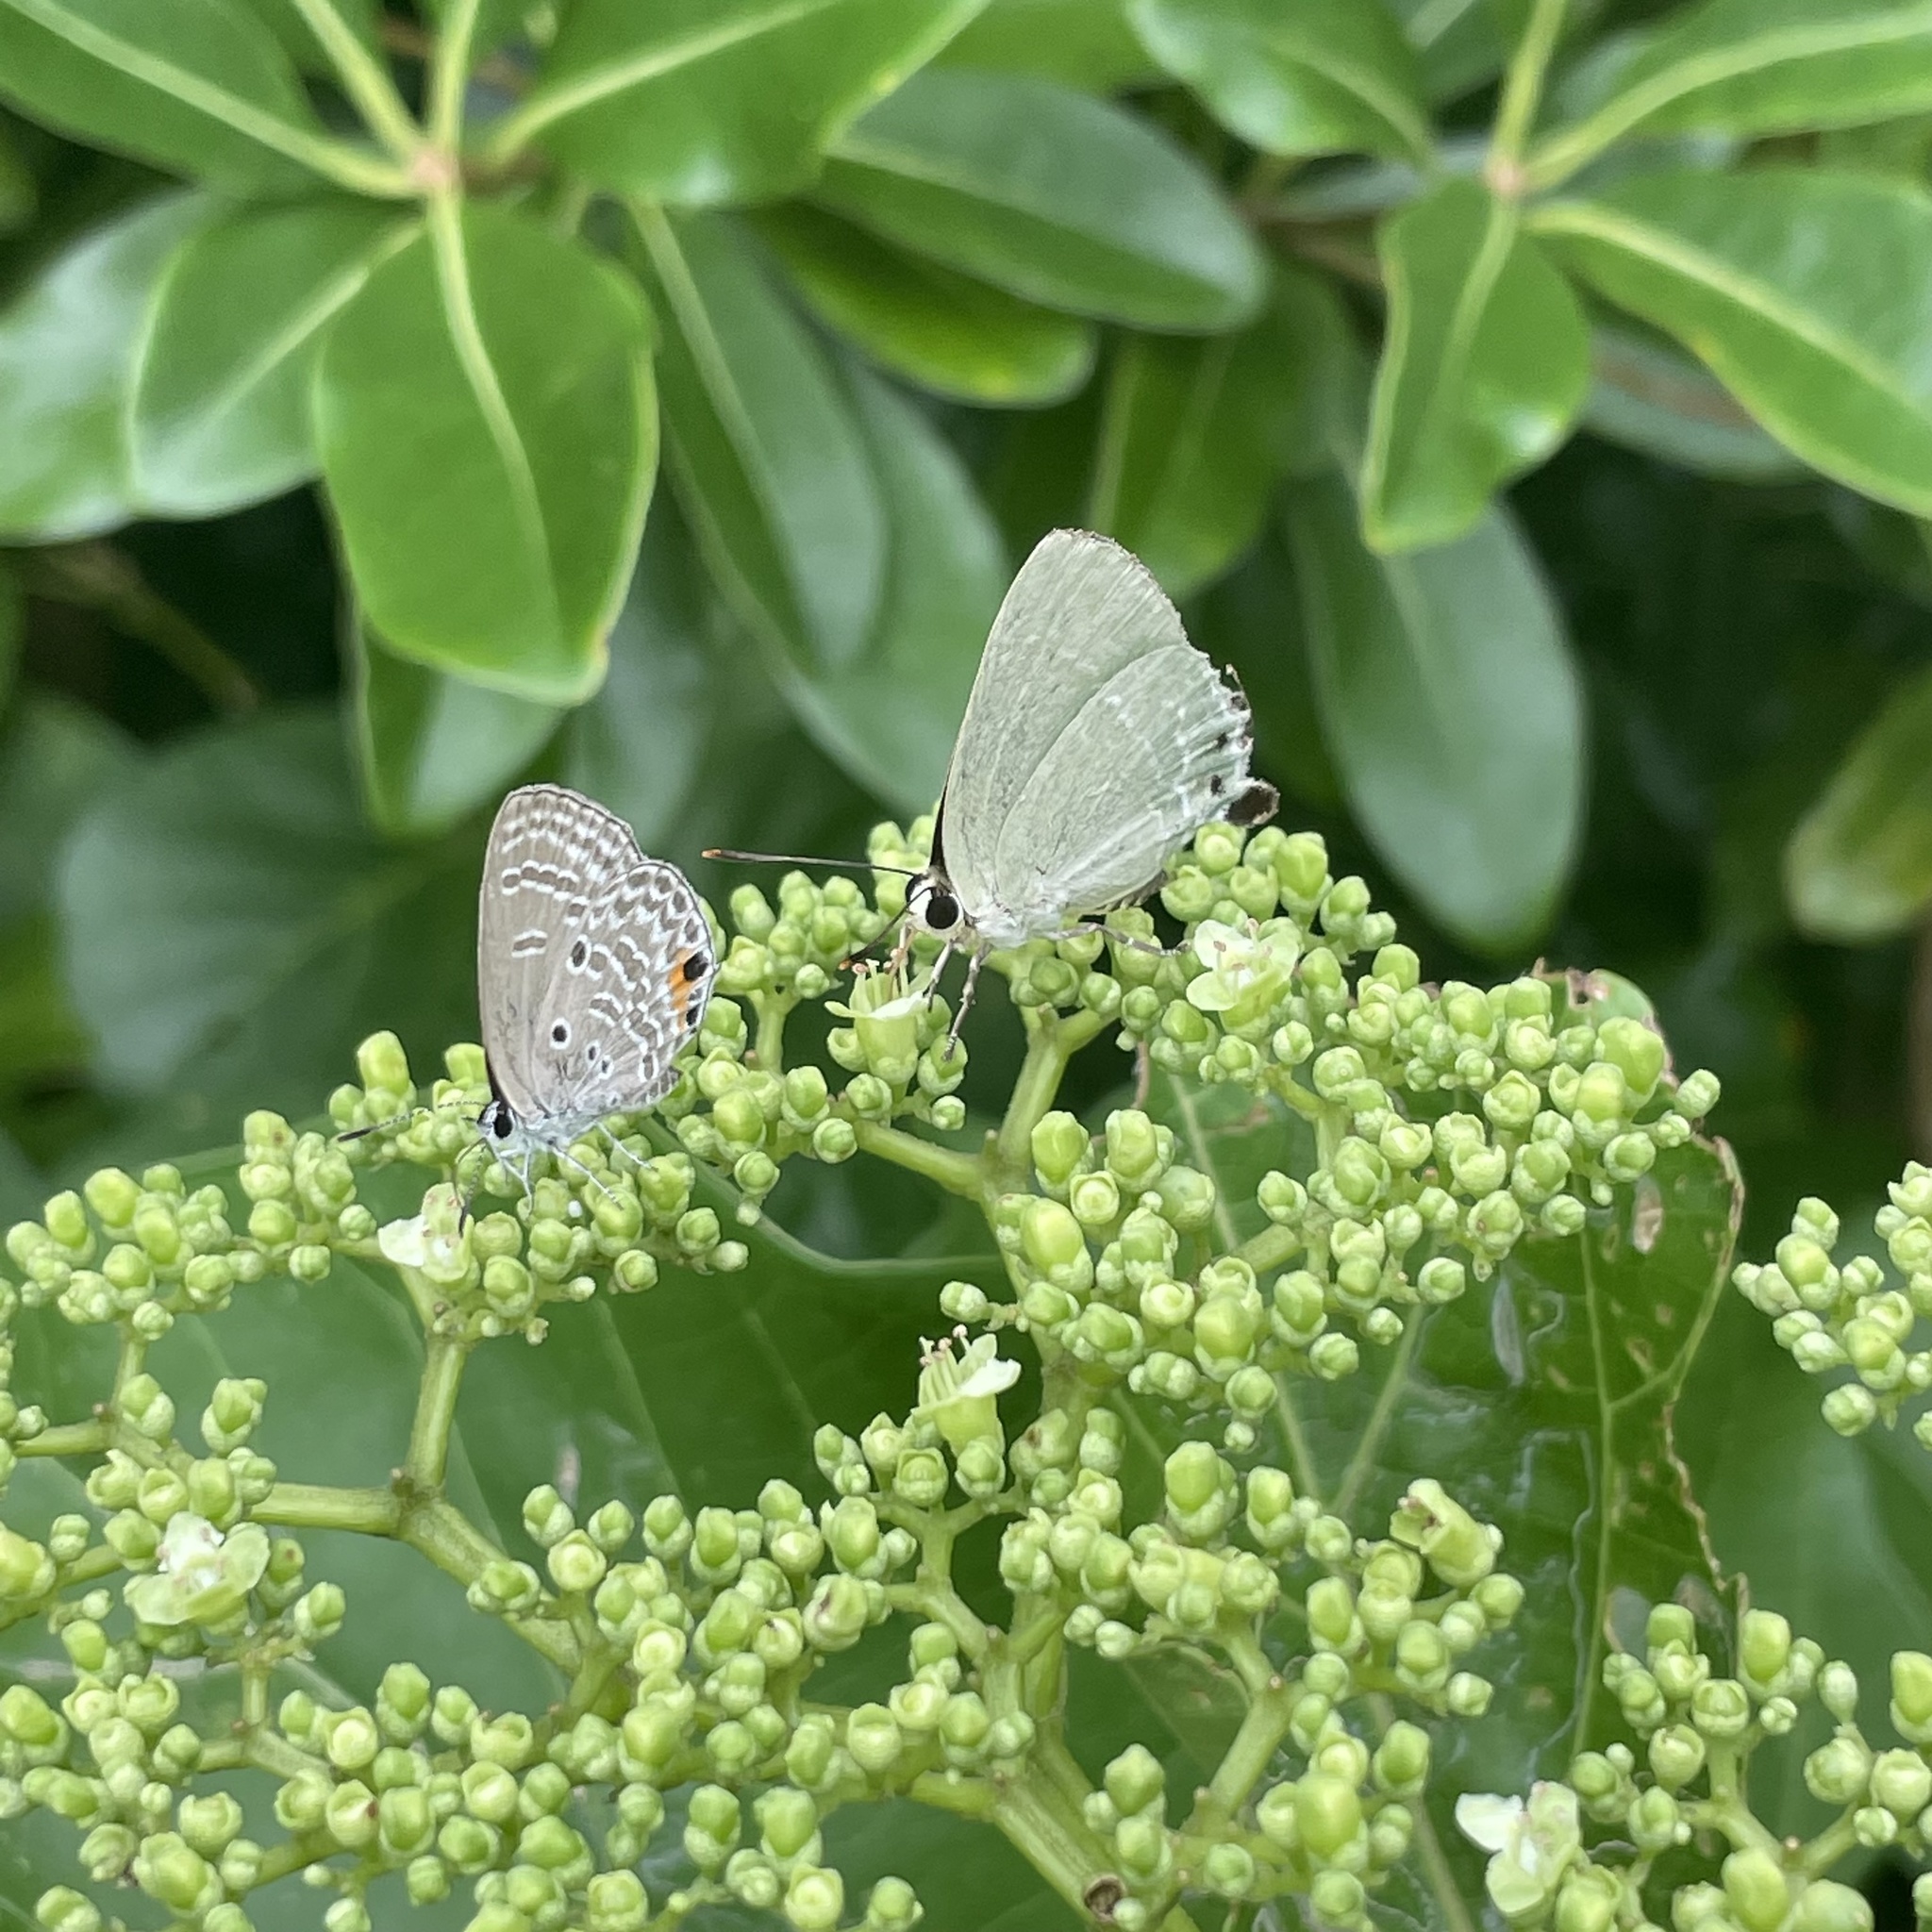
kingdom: Animalia
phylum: Arthropoda
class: Insecta
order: Lepidoptera
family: Lycaenidae
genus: Artipe
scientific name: Artipe eryx
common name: Green flash
